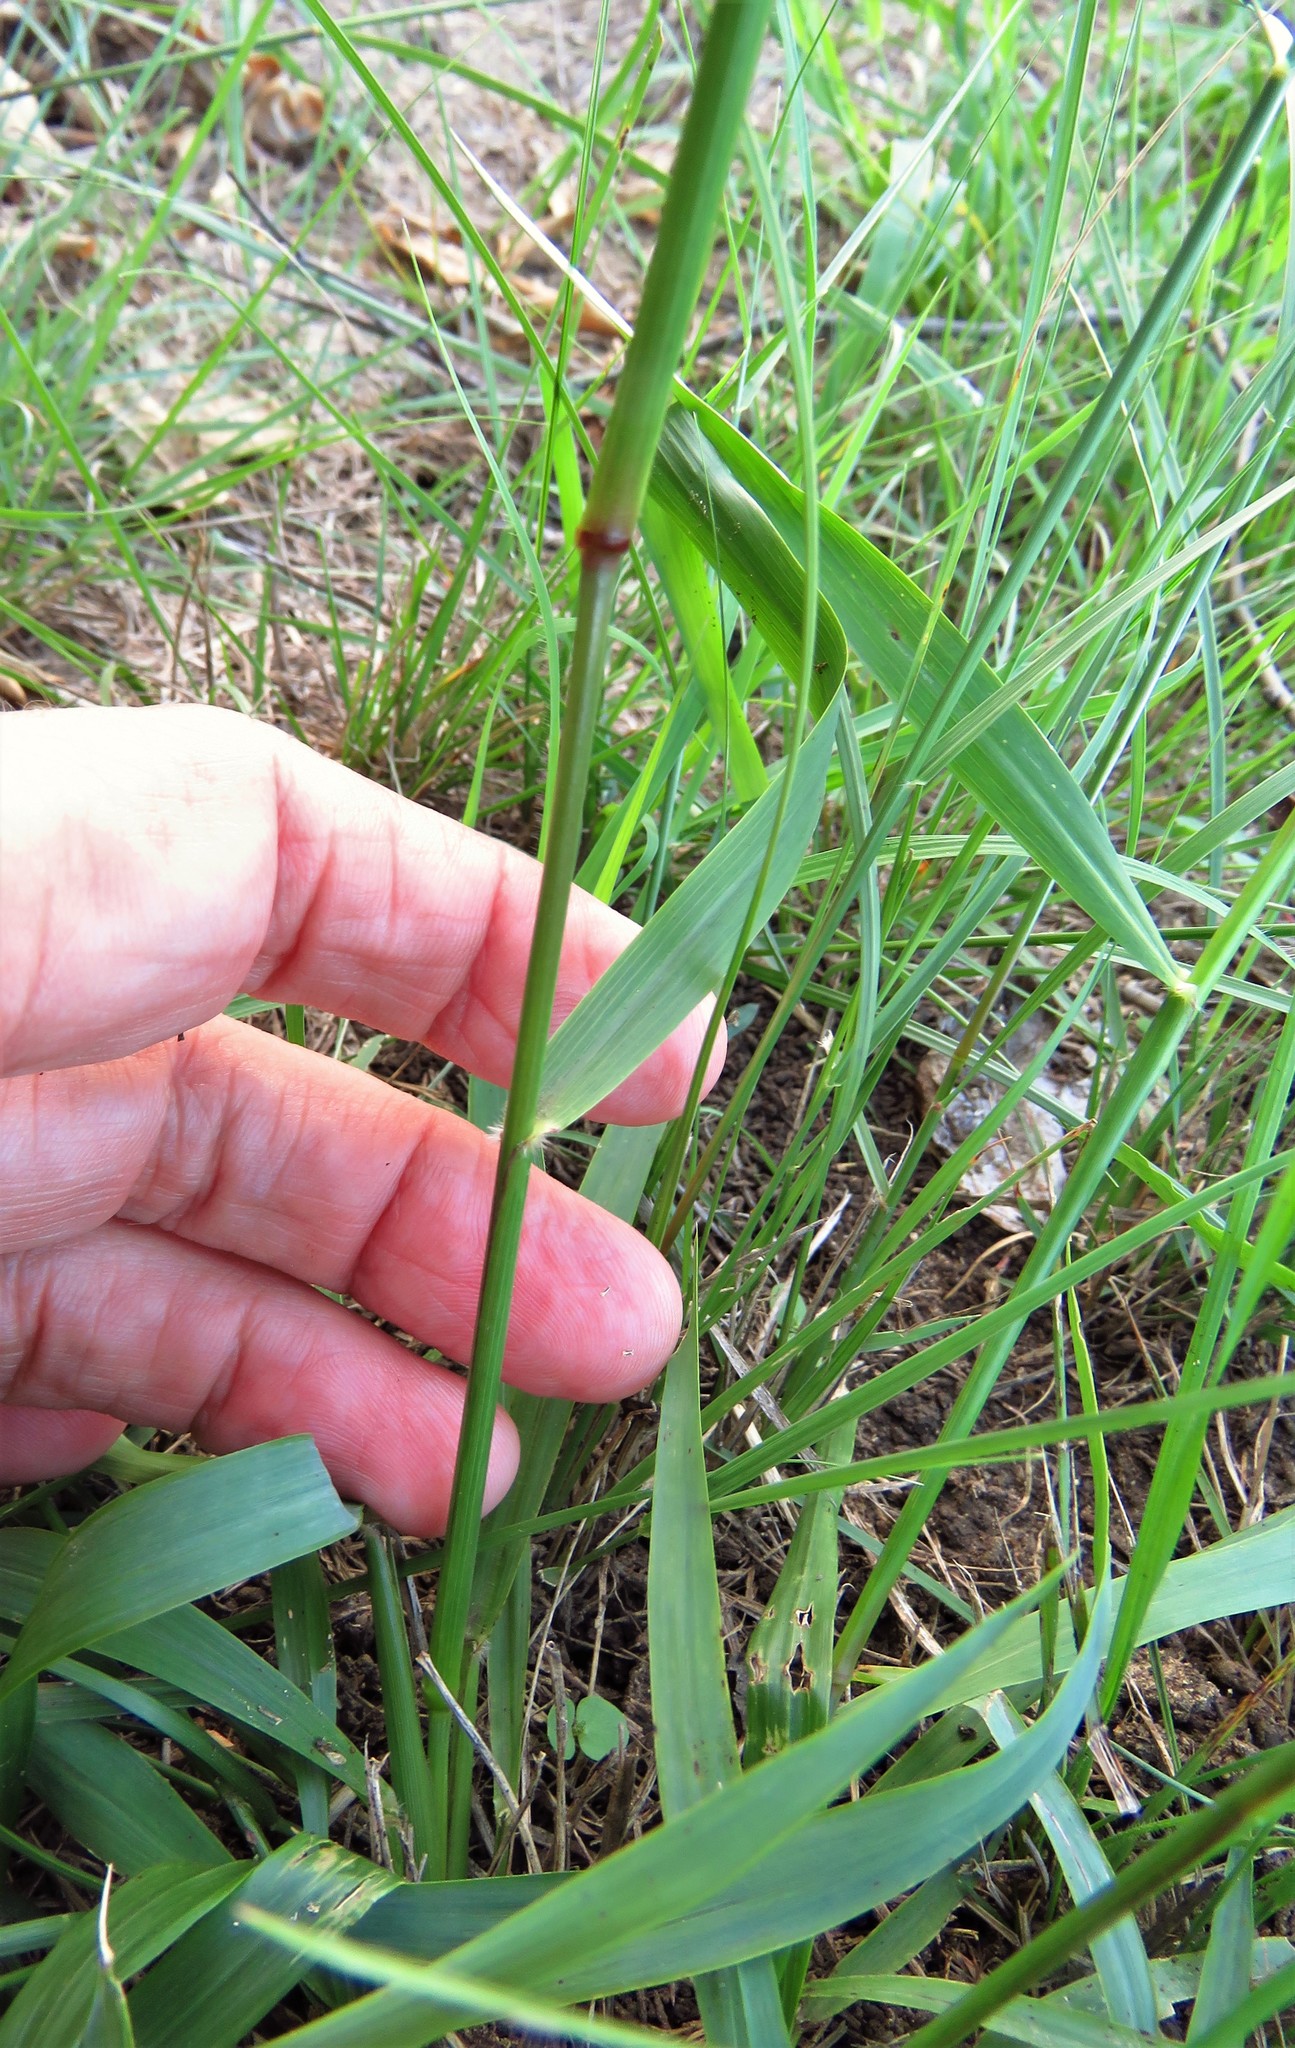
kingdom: Plantae
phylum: Tracheophyta
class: Liliopsida
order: Poales
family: Poaceae
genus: Tridens
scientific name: Tridens flavus
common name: Purpletop
